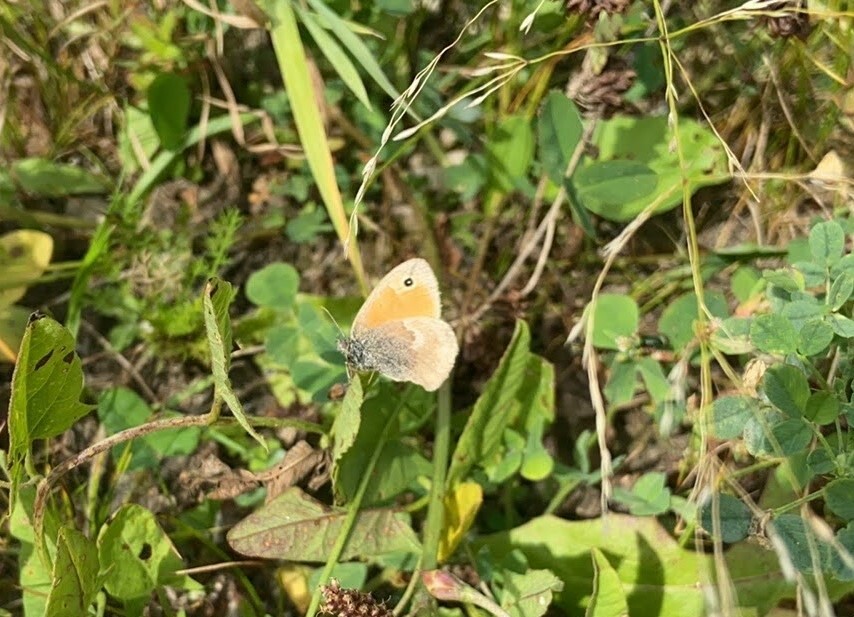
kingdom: Animalia
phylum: Arthropoda
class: Insecta
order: Lepidoptera
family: Nymphalidae
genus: Coenonympha
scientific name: Coenonympha pamphilus
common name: Small heath
